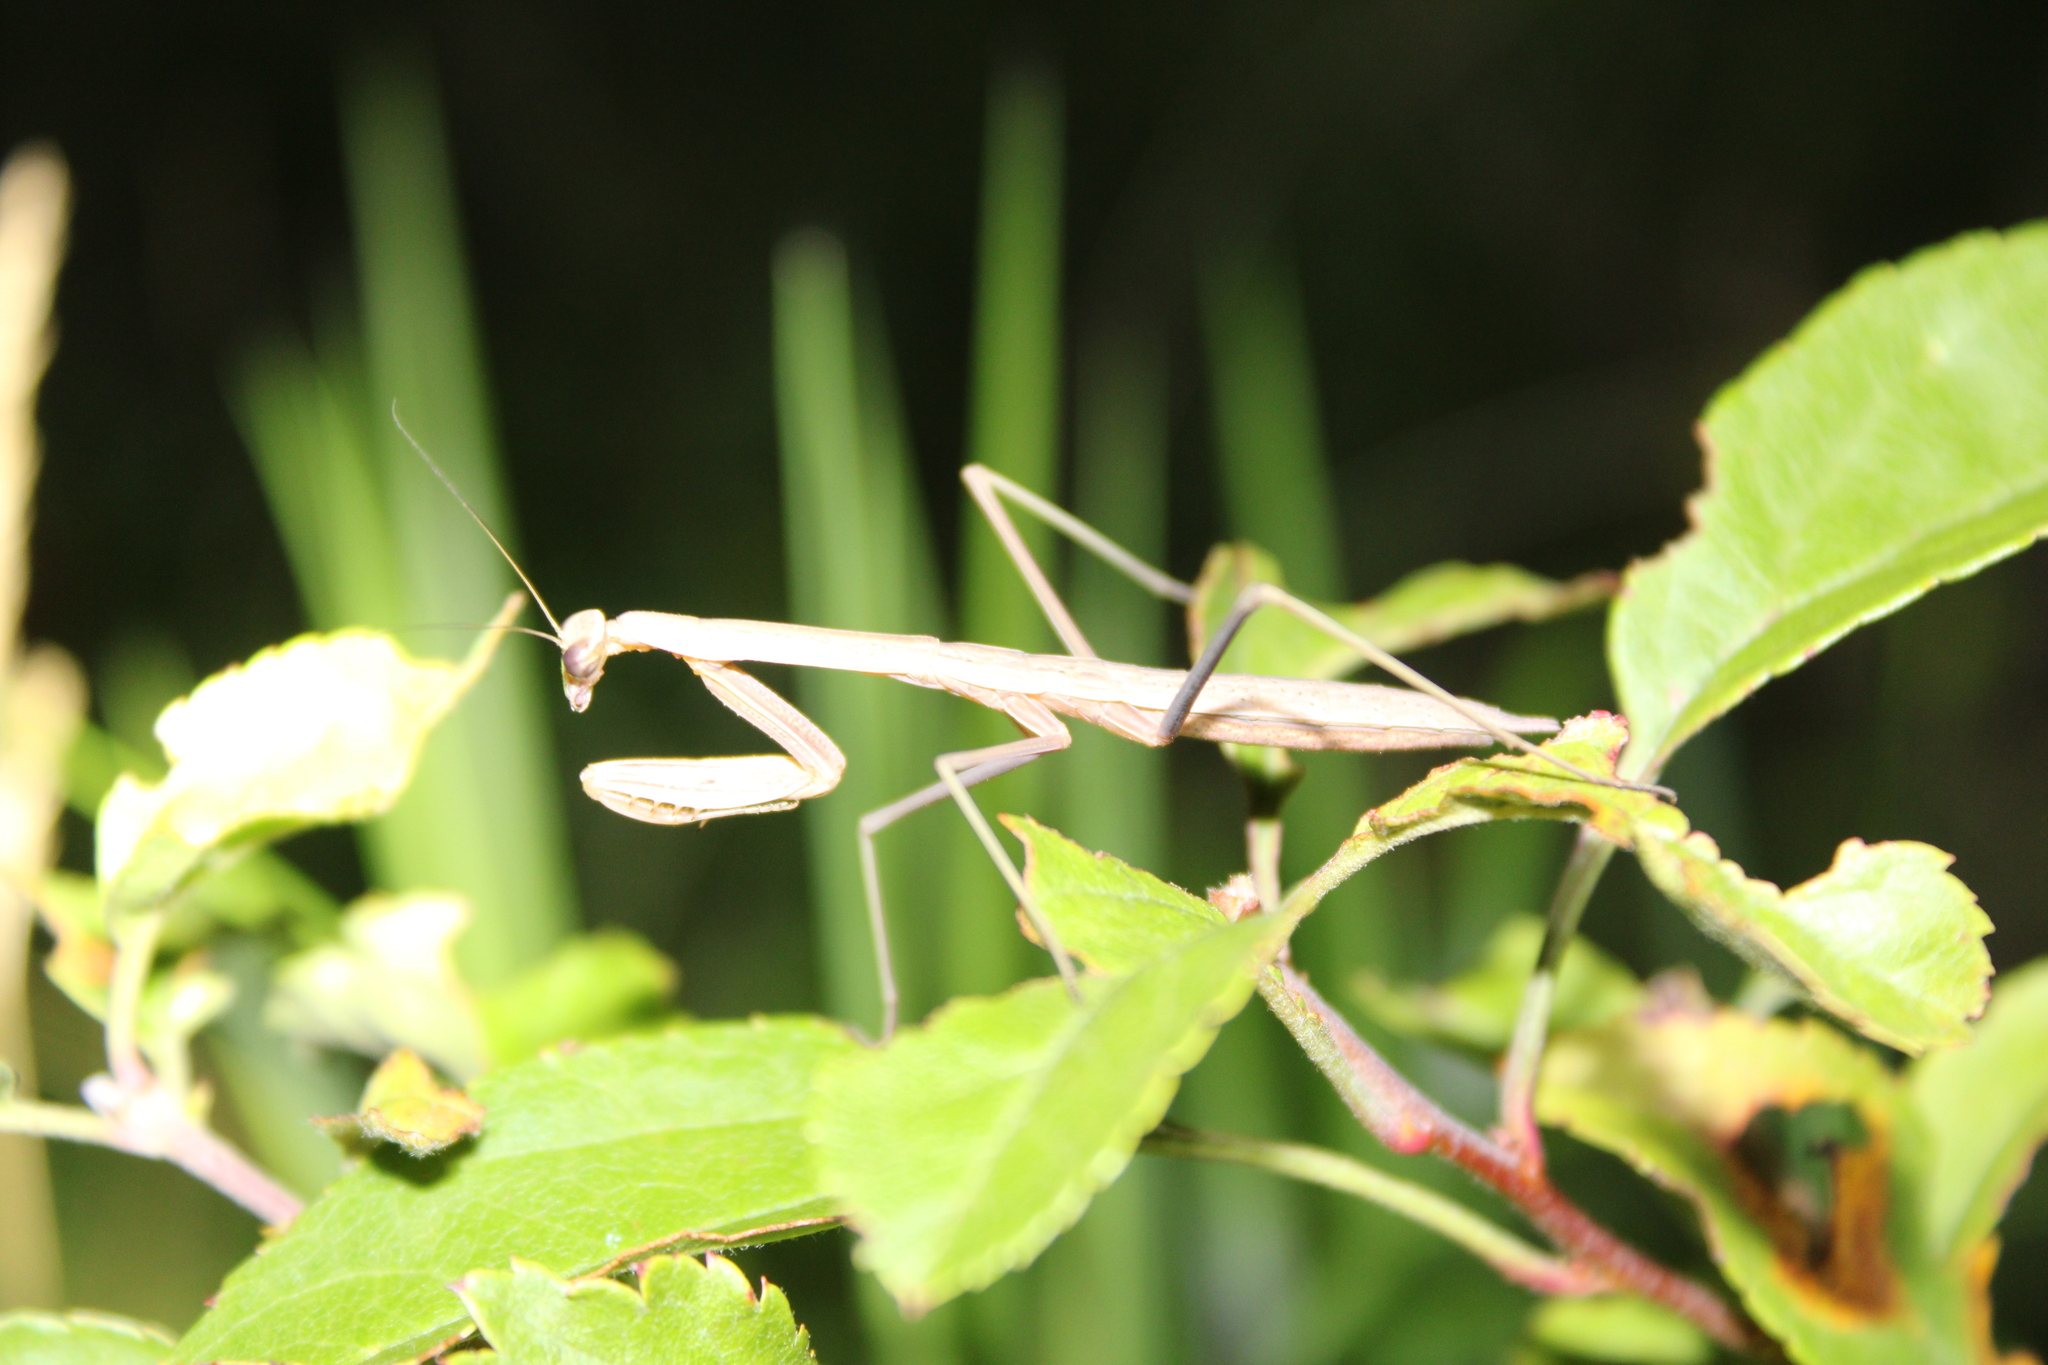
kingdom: Animalia
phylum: Arthropoda
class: Insecta
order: Mantodea
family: Mantidae
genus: Tenodera
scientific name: Tenodera sinensis
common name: Chinese mantis
